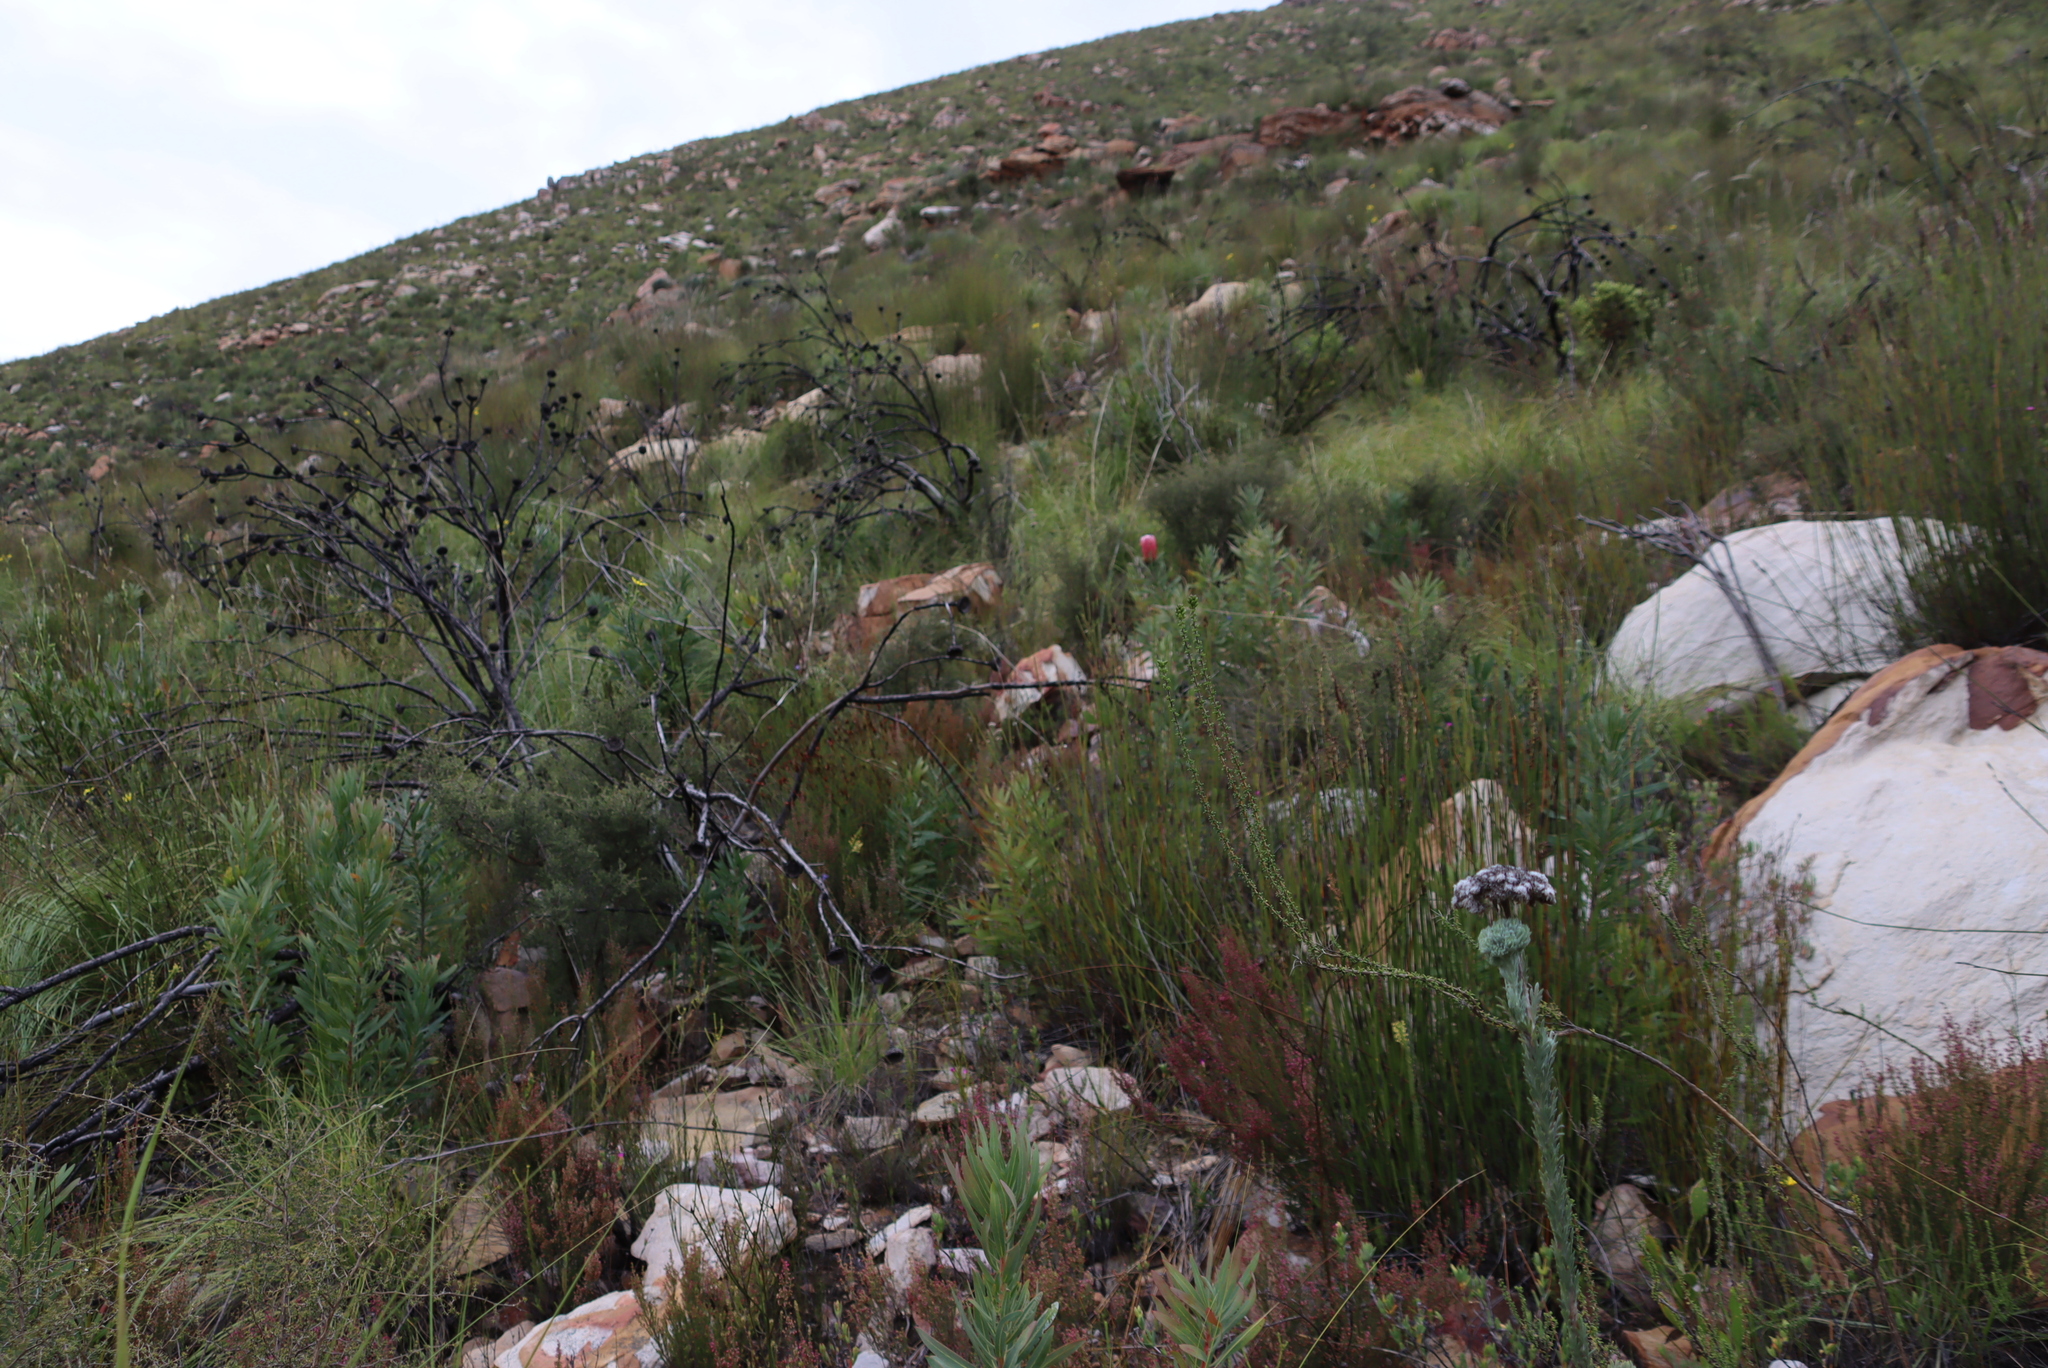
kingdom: Plantae
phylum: Tracheophyta
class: Magnoliopsida
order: Proteales
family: Proteaceae
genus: Protea
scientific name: Protea neriifolia
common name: Blue sugarbush
